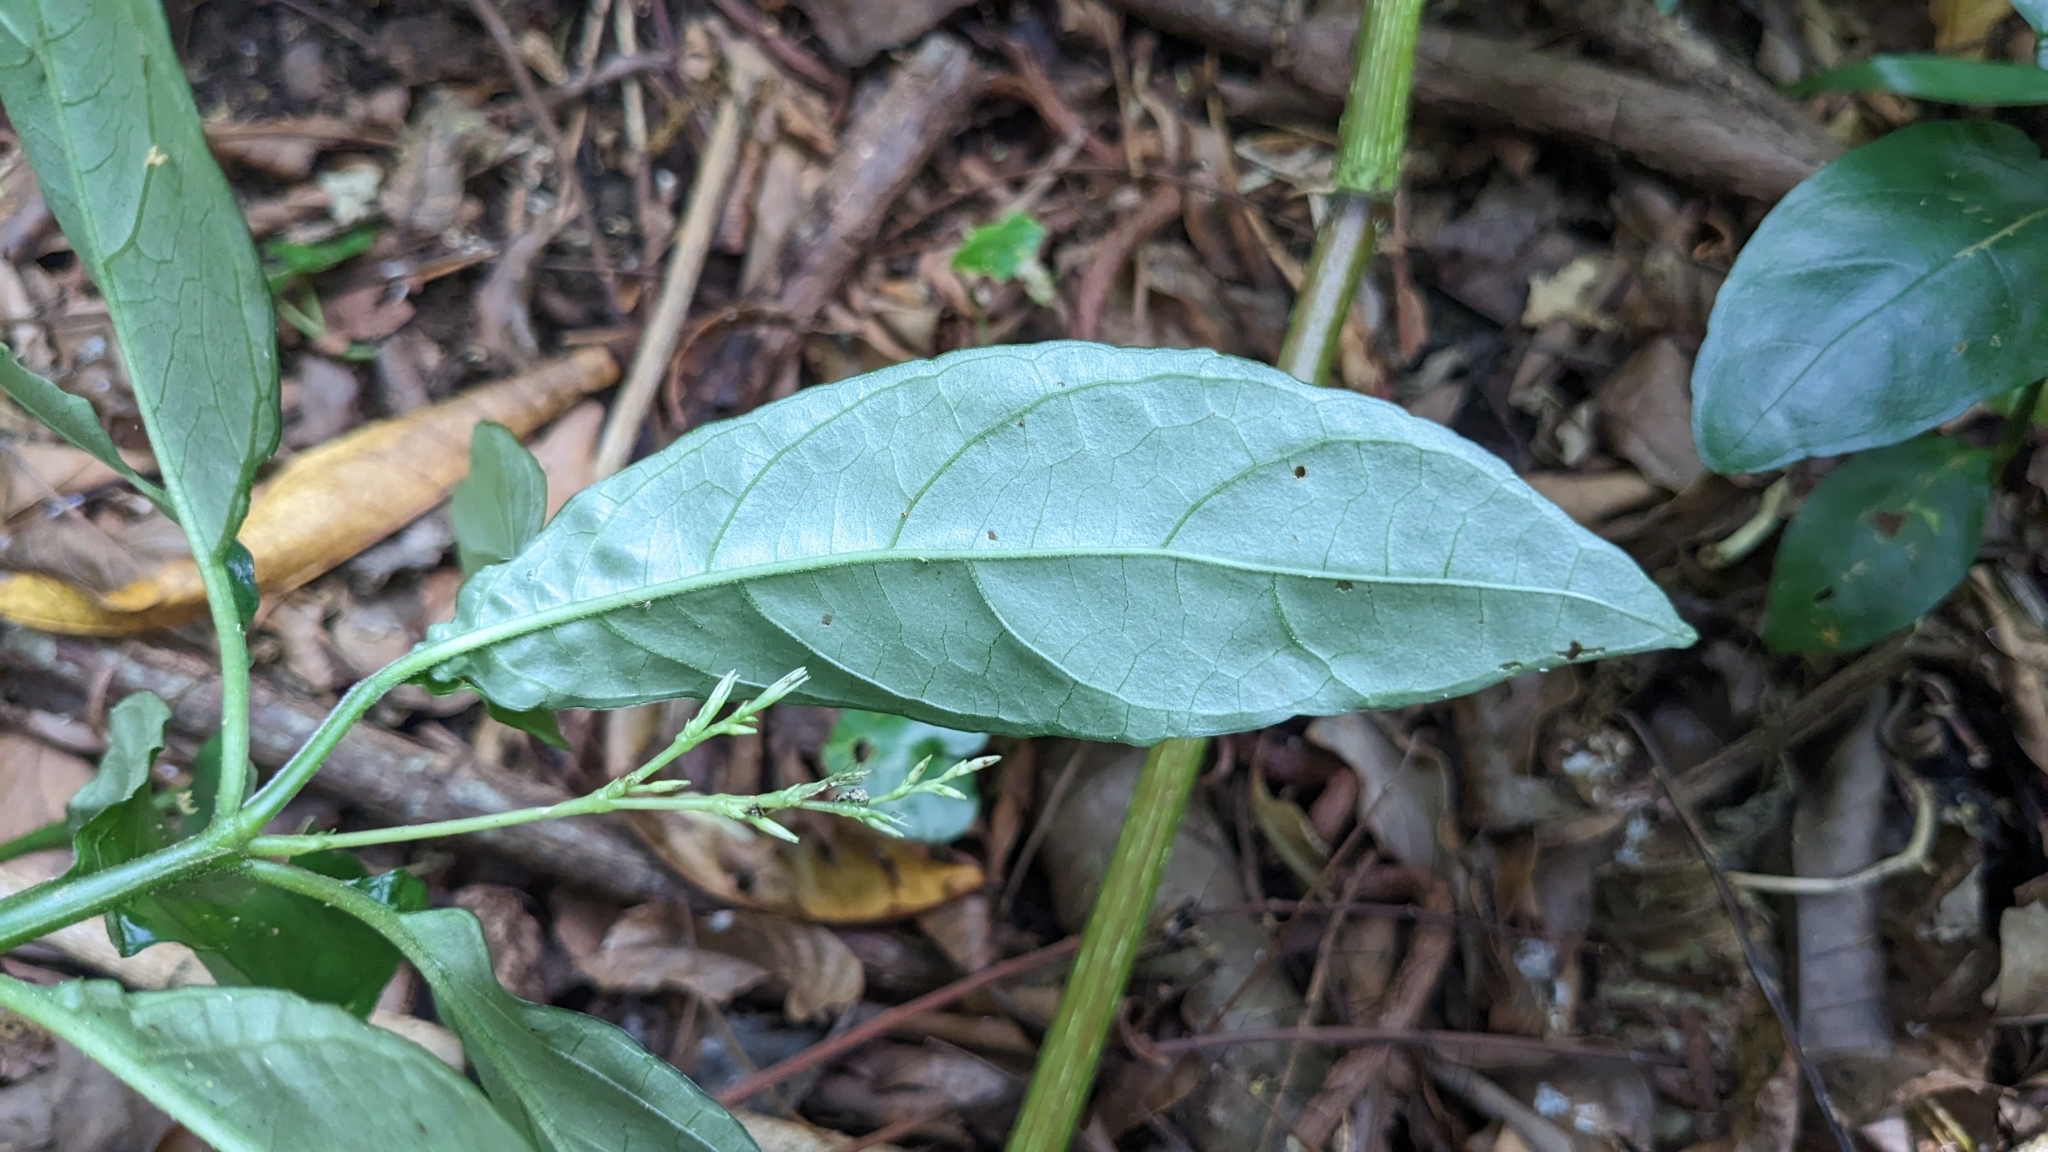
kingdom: Plantae
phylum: Tracheophyta
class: Magnoliopsida
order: Lamiales
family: Acanthaceae
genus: Codonacanthus
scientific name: Codonacanthus pauciflorus
